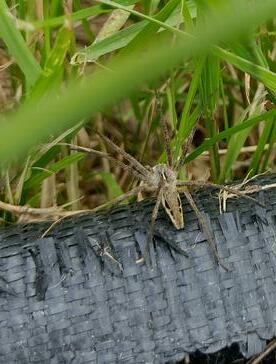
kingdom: Animalia
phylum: Arthropoda
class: Arachnida
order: Araneae
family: Pisauridae
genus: Pisaura
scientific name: Pisaura mirabilis
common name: Tent spider
